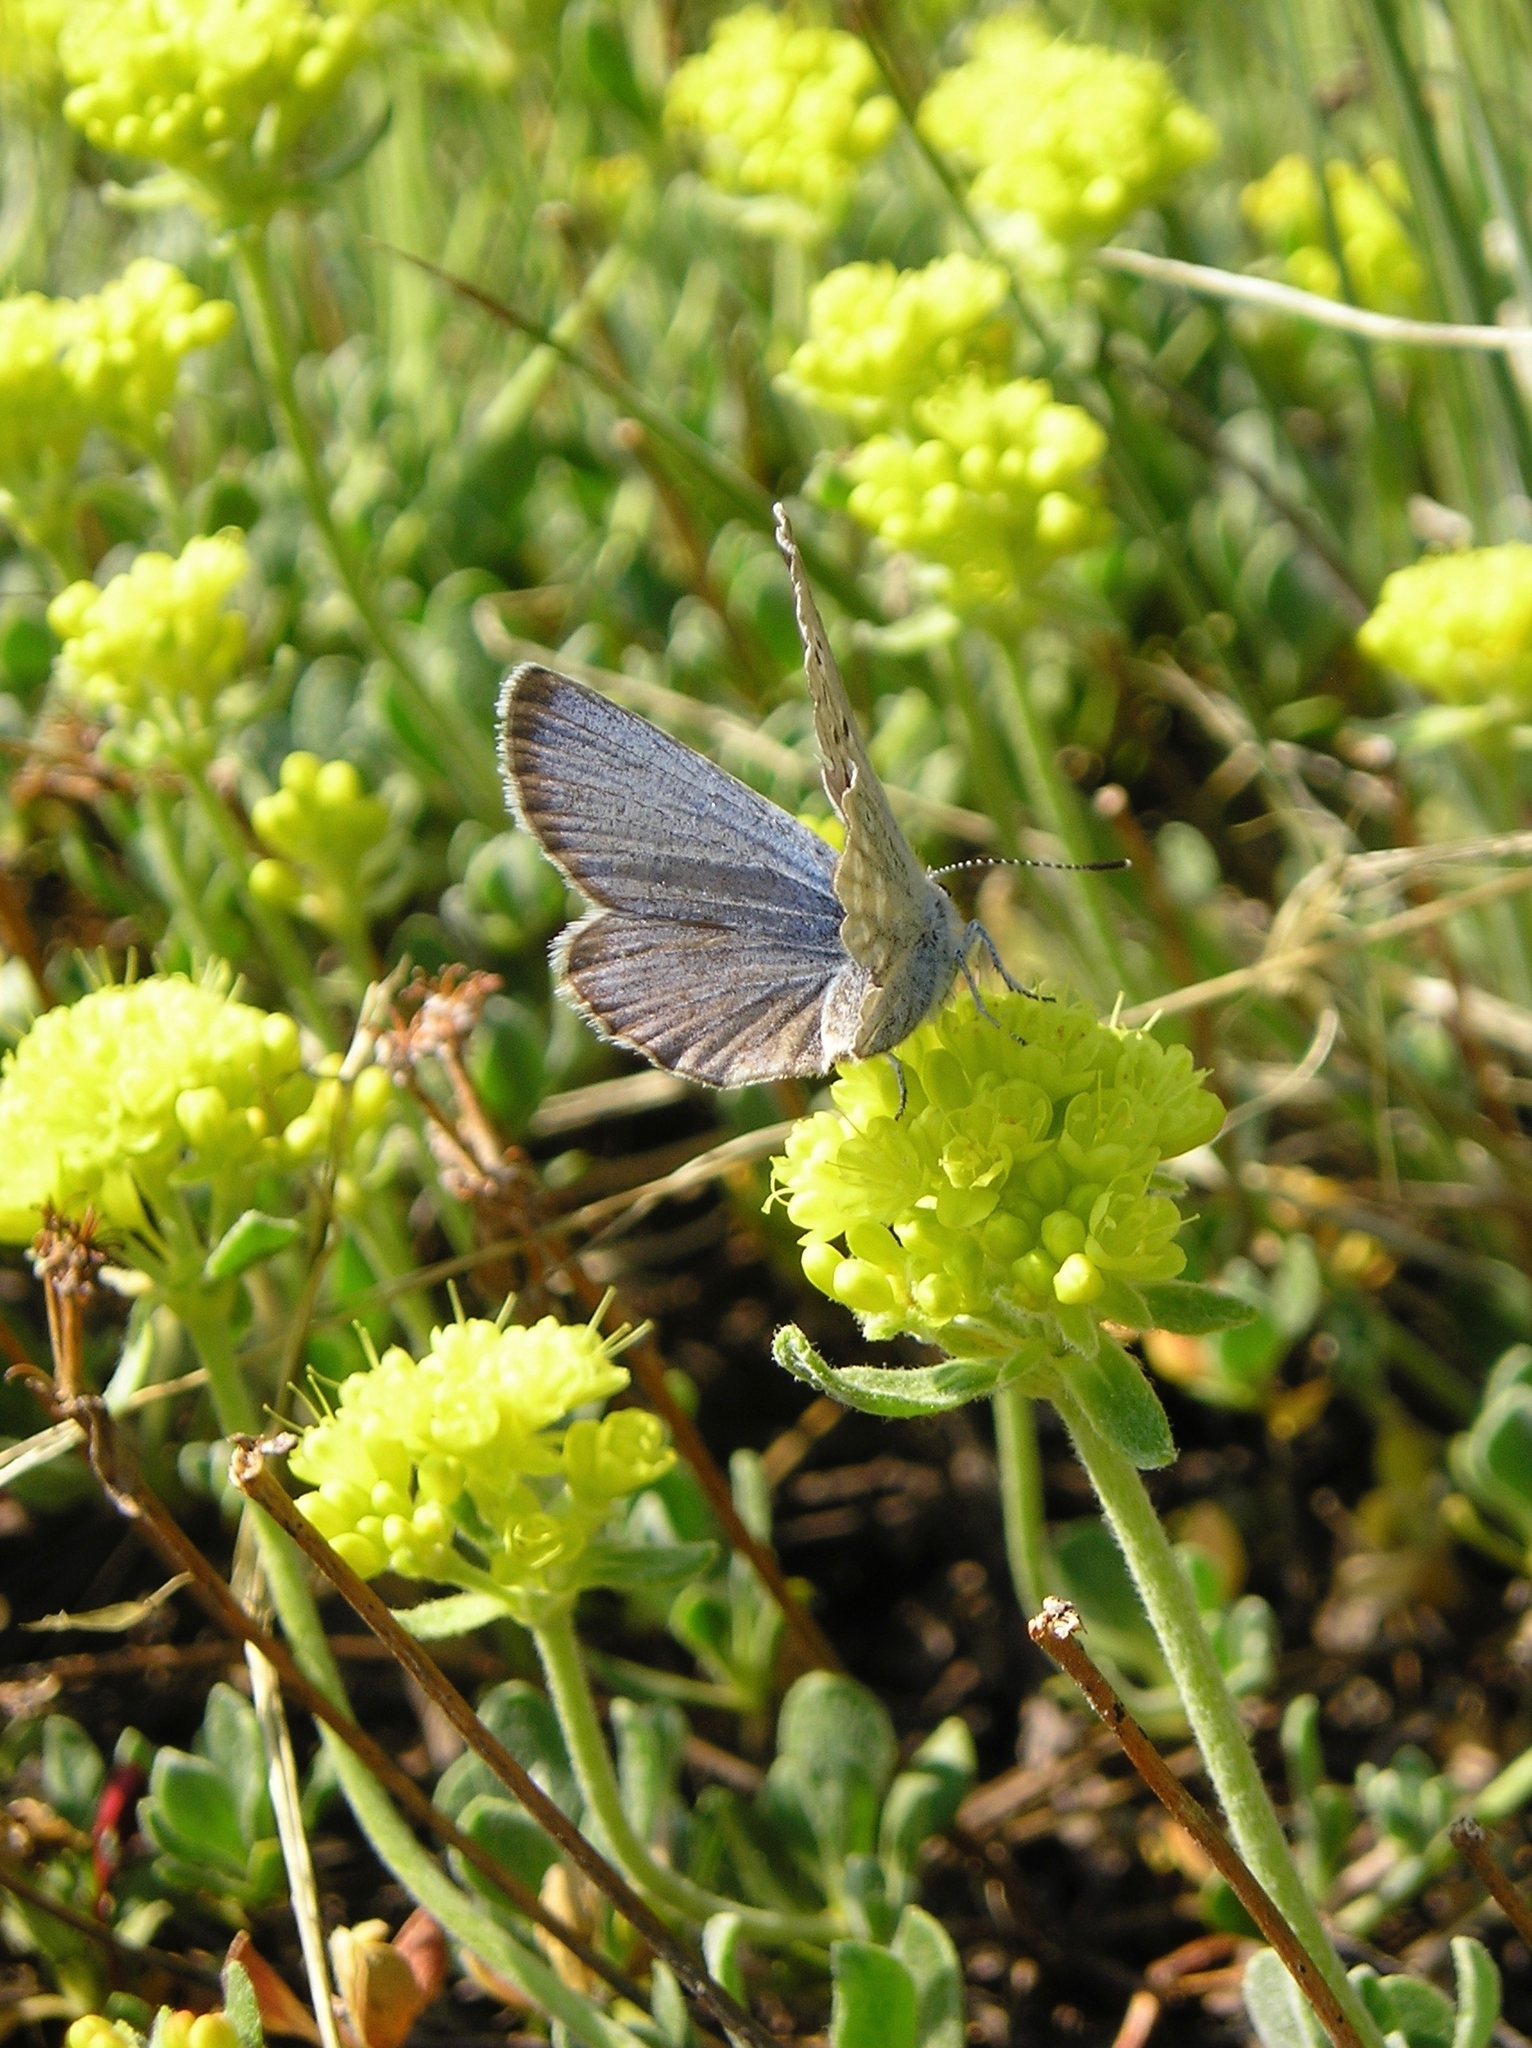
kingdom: Animalia
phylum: Arthropoda
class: Insecta
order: Lepidoptera
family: Lycaenidae
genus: Icaricia
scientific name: Icaricia icarioides
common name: Boisduval's blue
